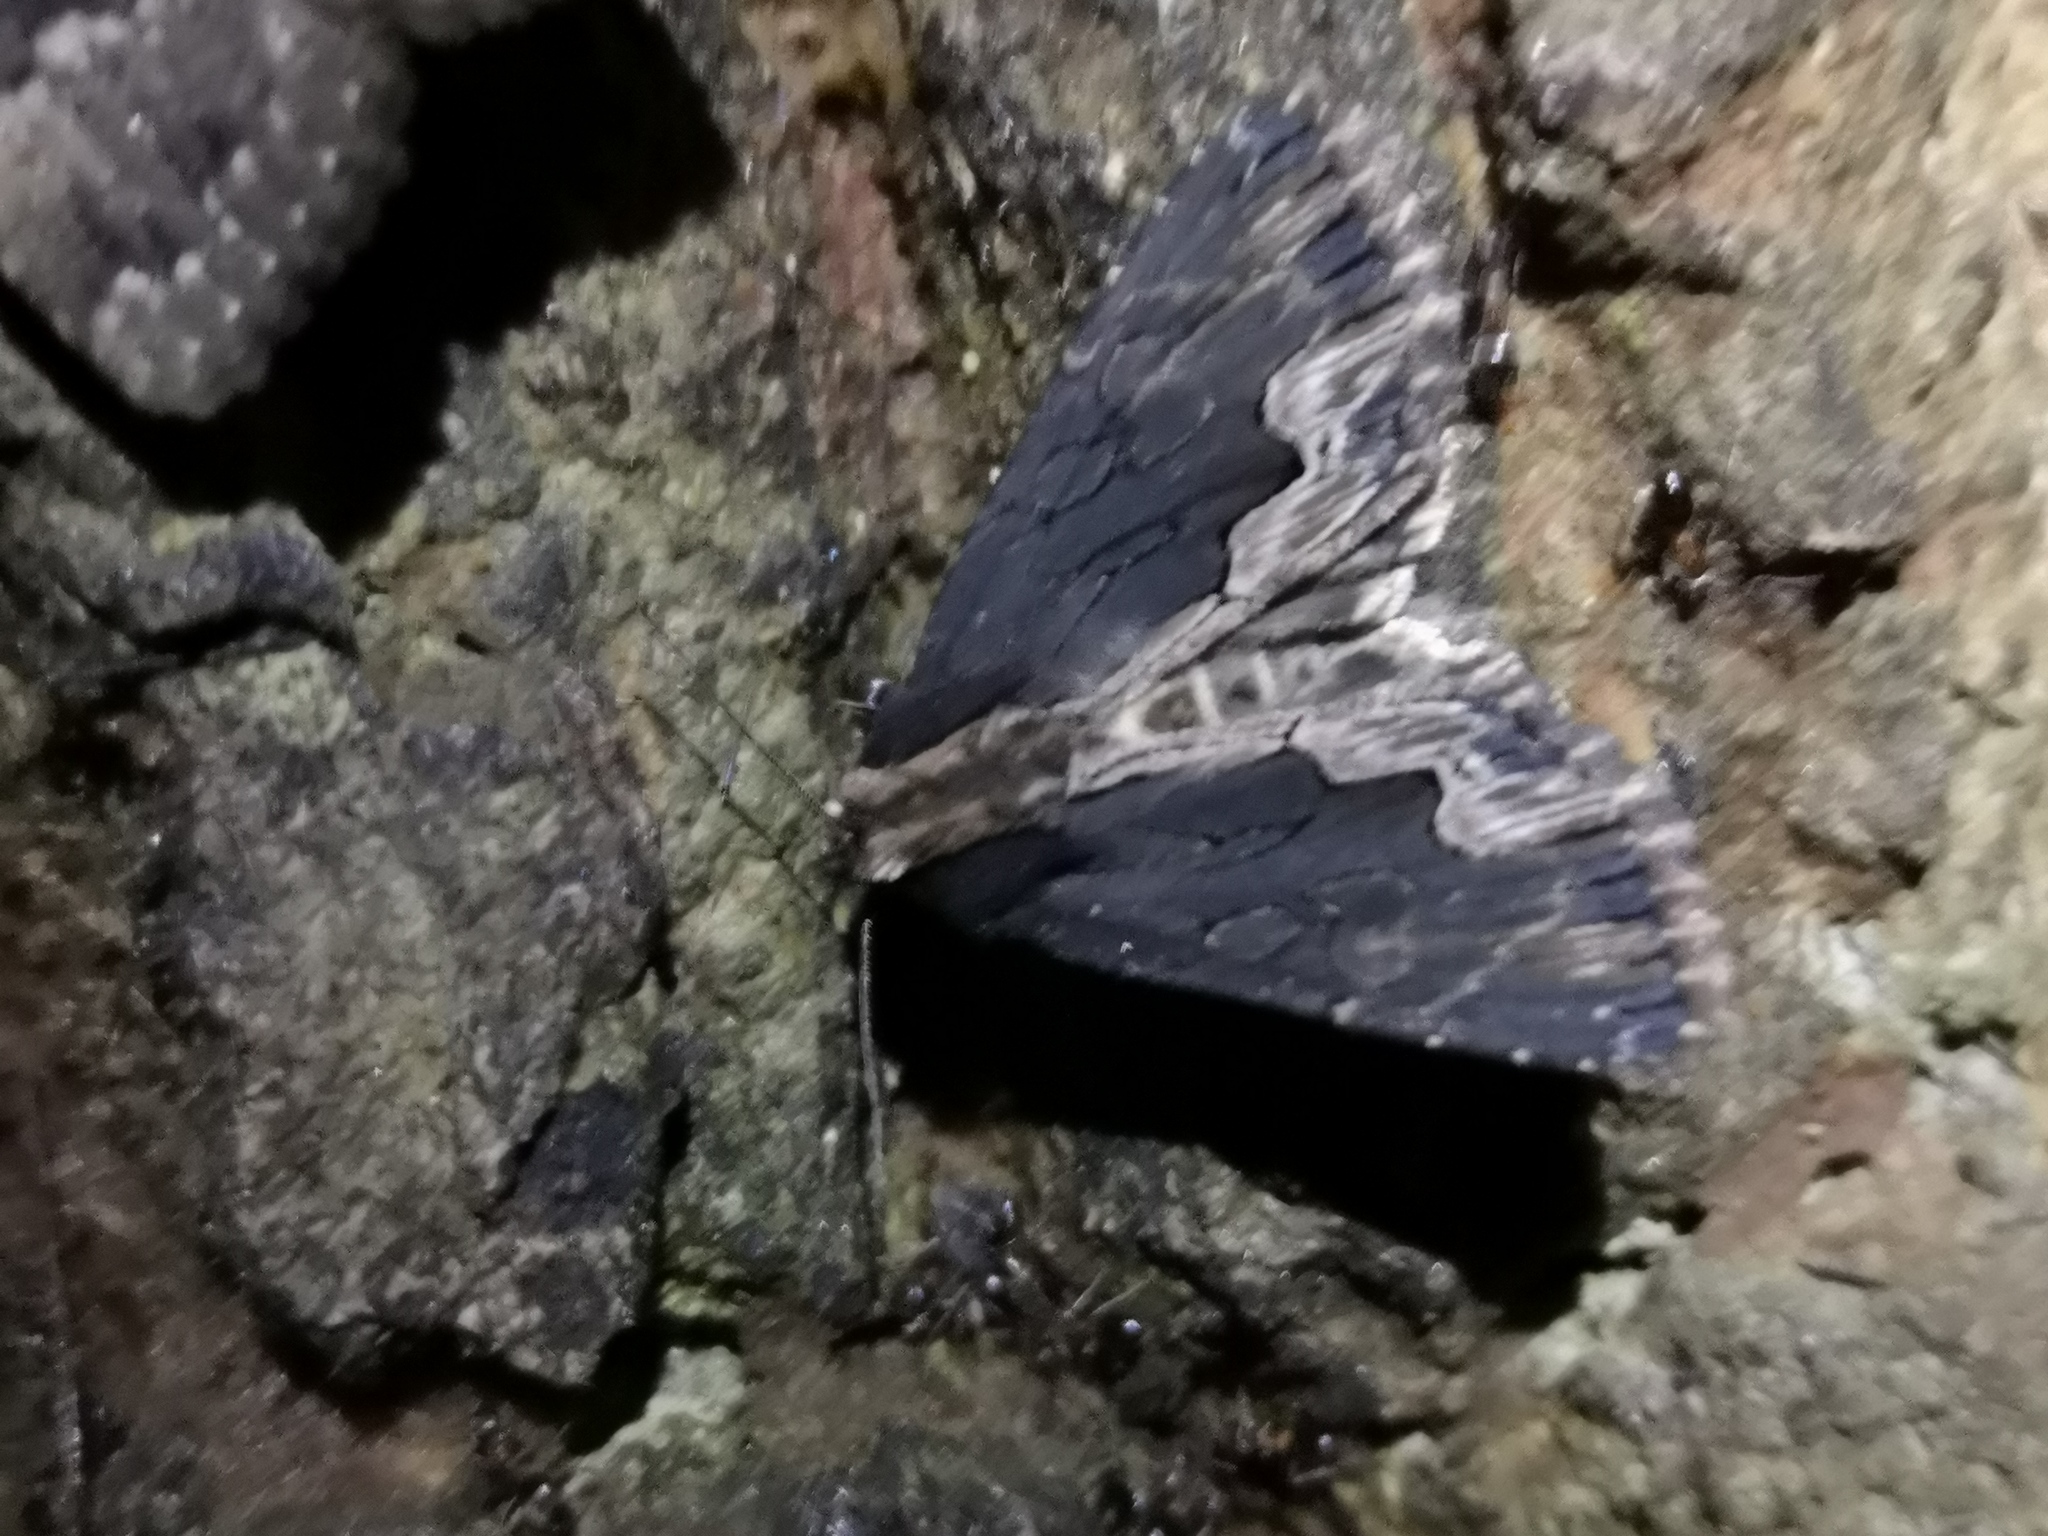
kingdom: Animalia
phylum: Arthropoda
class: Insecta
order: Lepidoptera
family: Noctuidae
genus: Dypterygia
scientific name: Dypterygia scabriuscula
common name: Bird's wing
